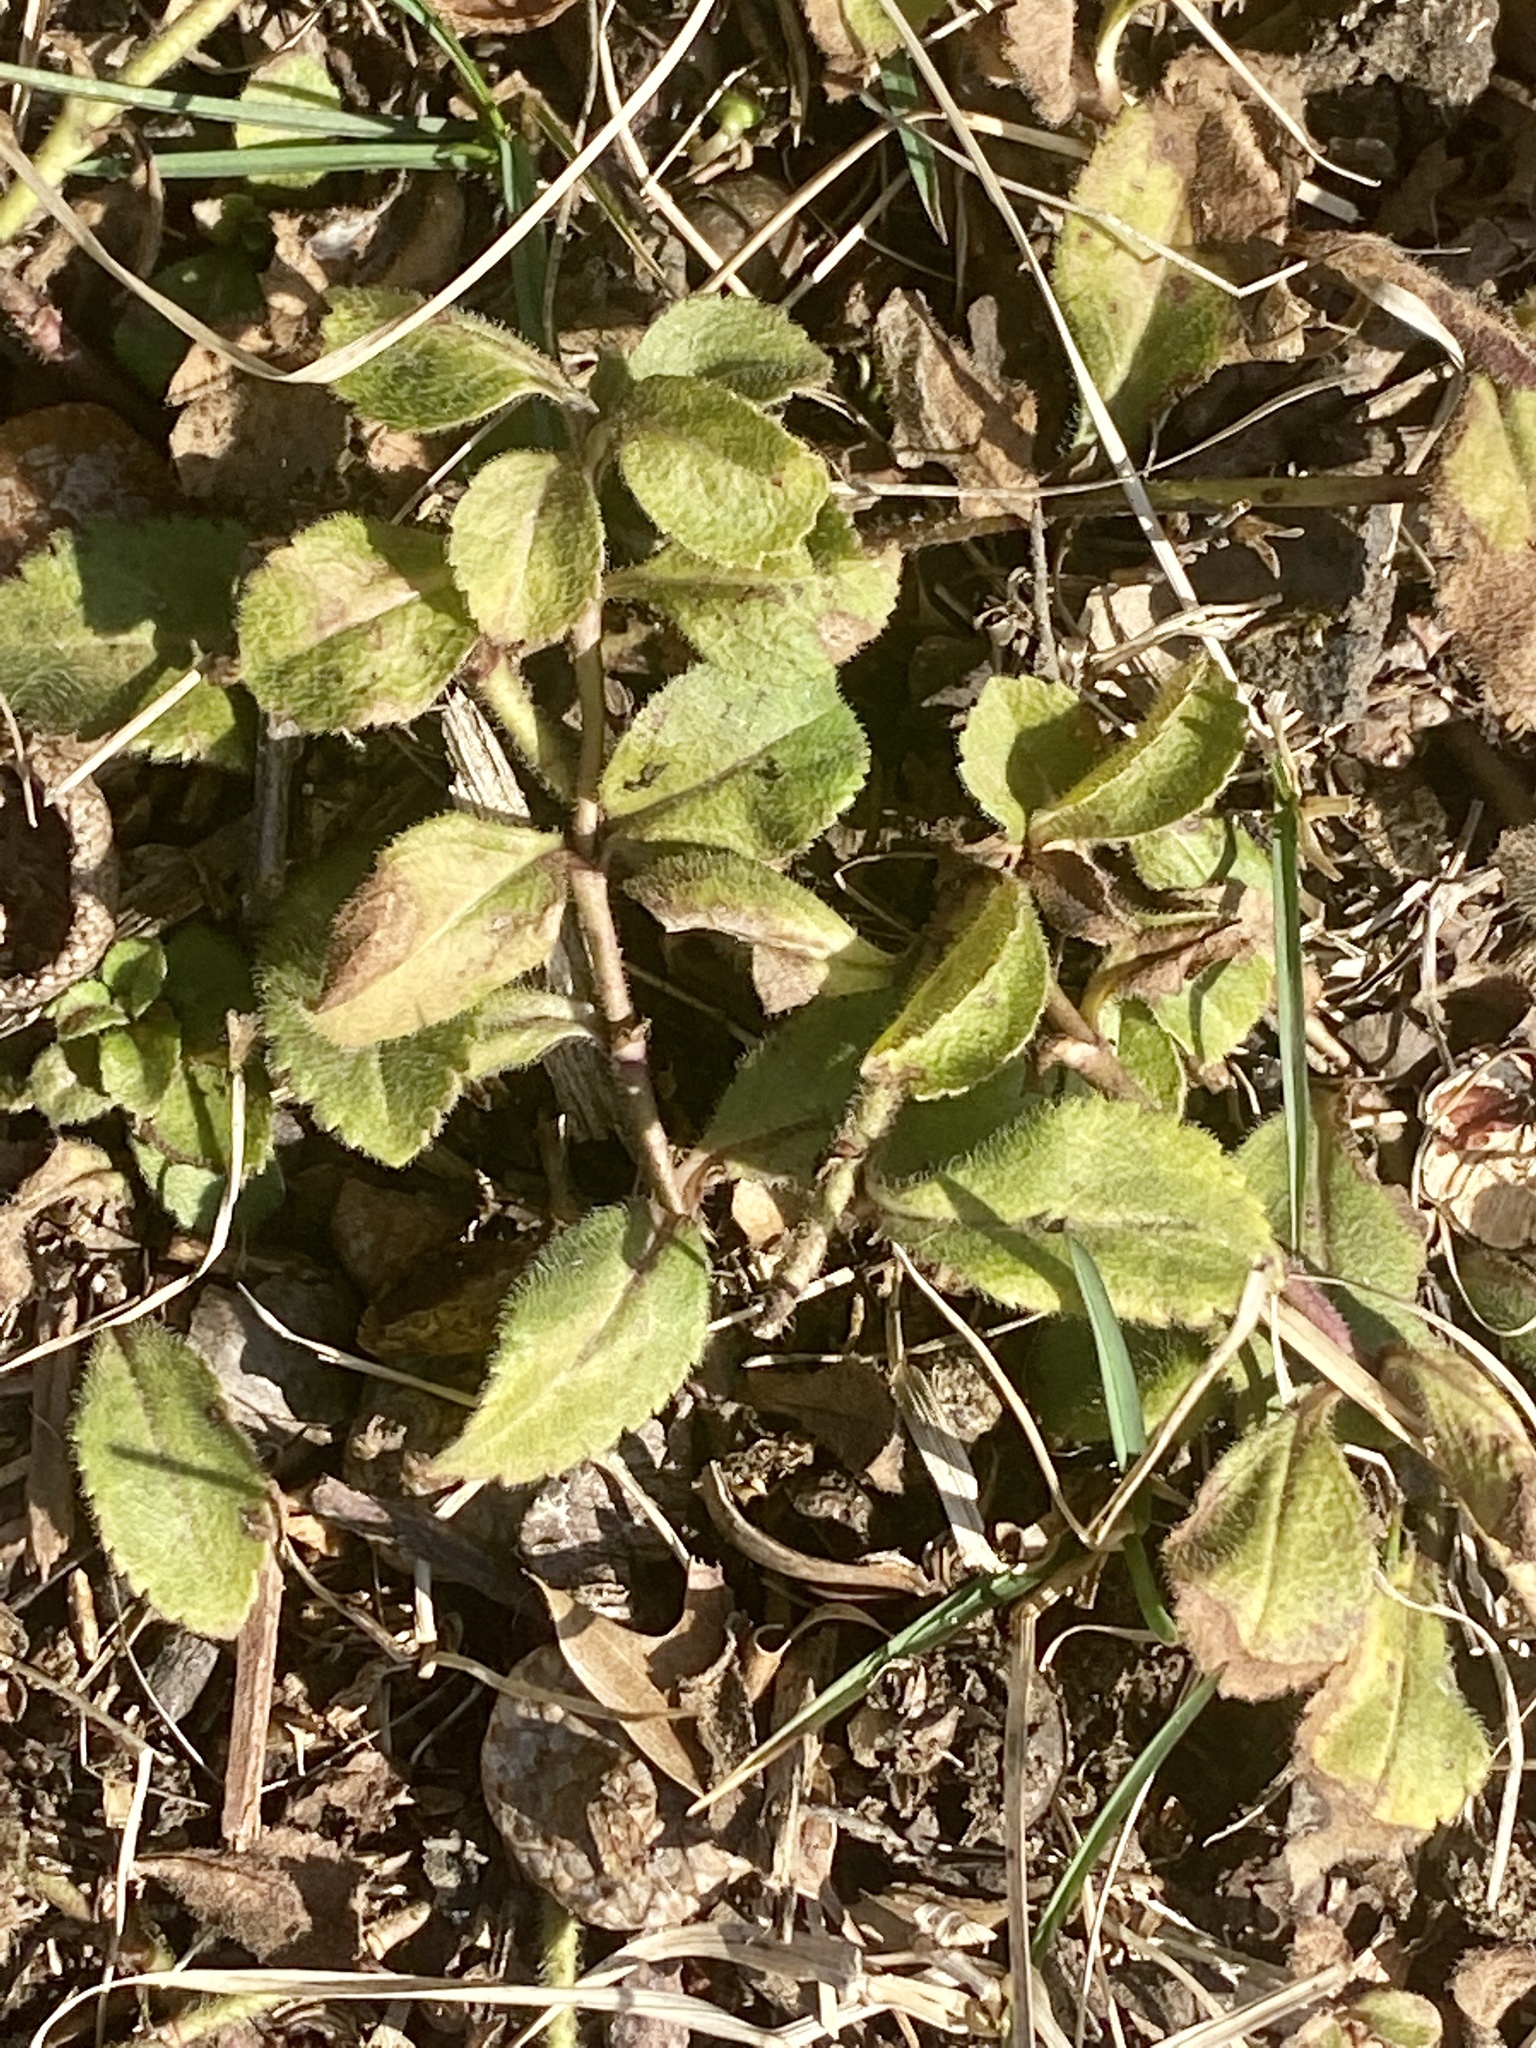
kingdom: Plantae
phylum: Tracheophyta
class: Magnoliopsida
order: Lamiales
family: Plantaginaceae
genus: Veronica
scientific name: Veronica officinalis
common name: Common speedwell
